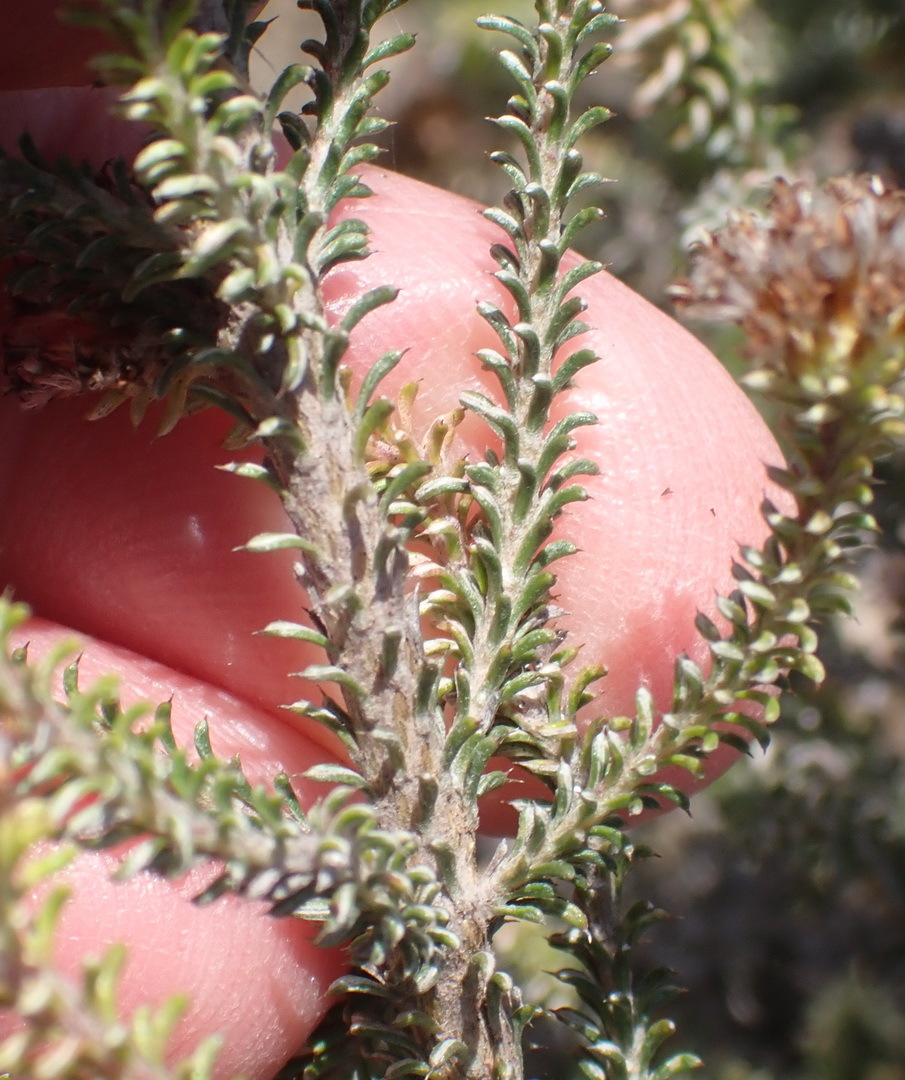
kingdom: Plantae
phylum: Tracheophyta
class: Magnoliopsida
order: Asterales
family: Asteraceae
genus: Disparago
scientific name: Disparago tortilis
